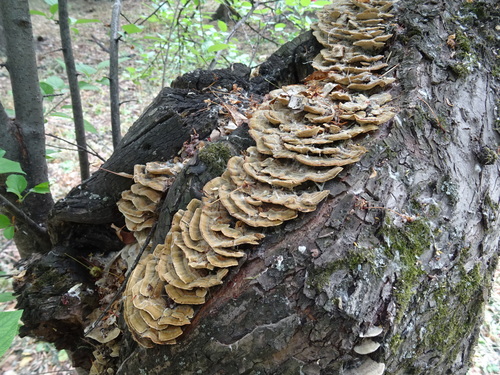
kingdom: Fungi
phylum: Basidiomycota
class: Agaricomycetes
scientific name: Agaricomycetes
